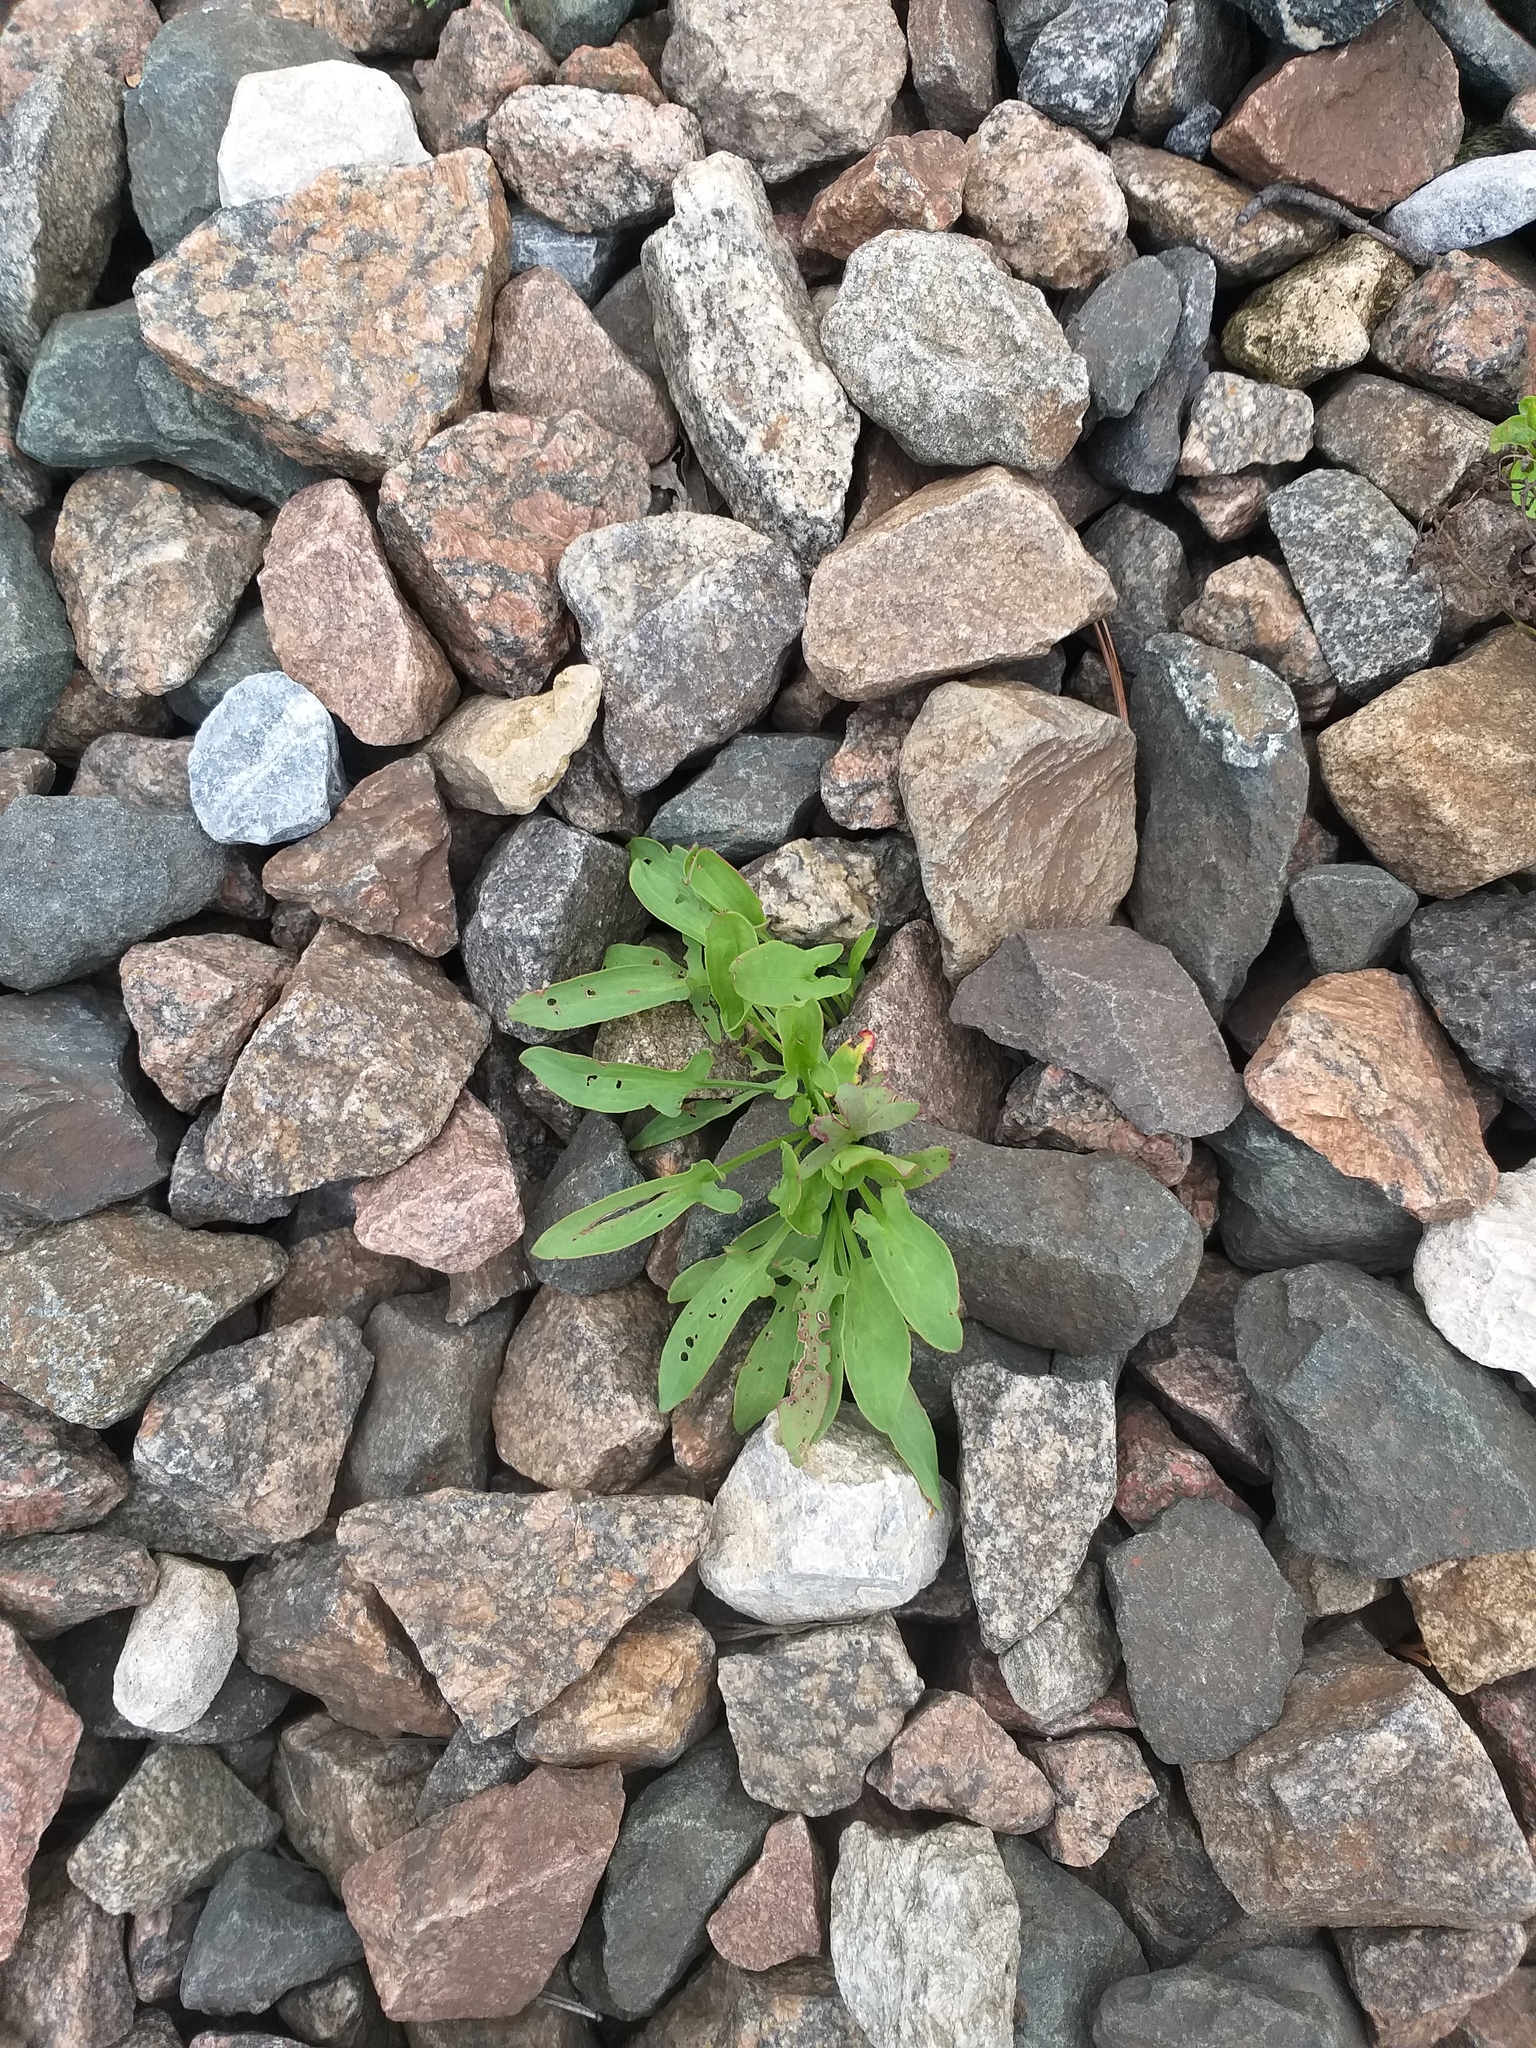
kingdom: Plantae
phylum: Tracheophyta
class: Magnoliopsida
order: Caryophyllales
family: Polygonaceae
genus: Rumex
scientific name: Rumex acetosella
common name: Common sheep sorrel
